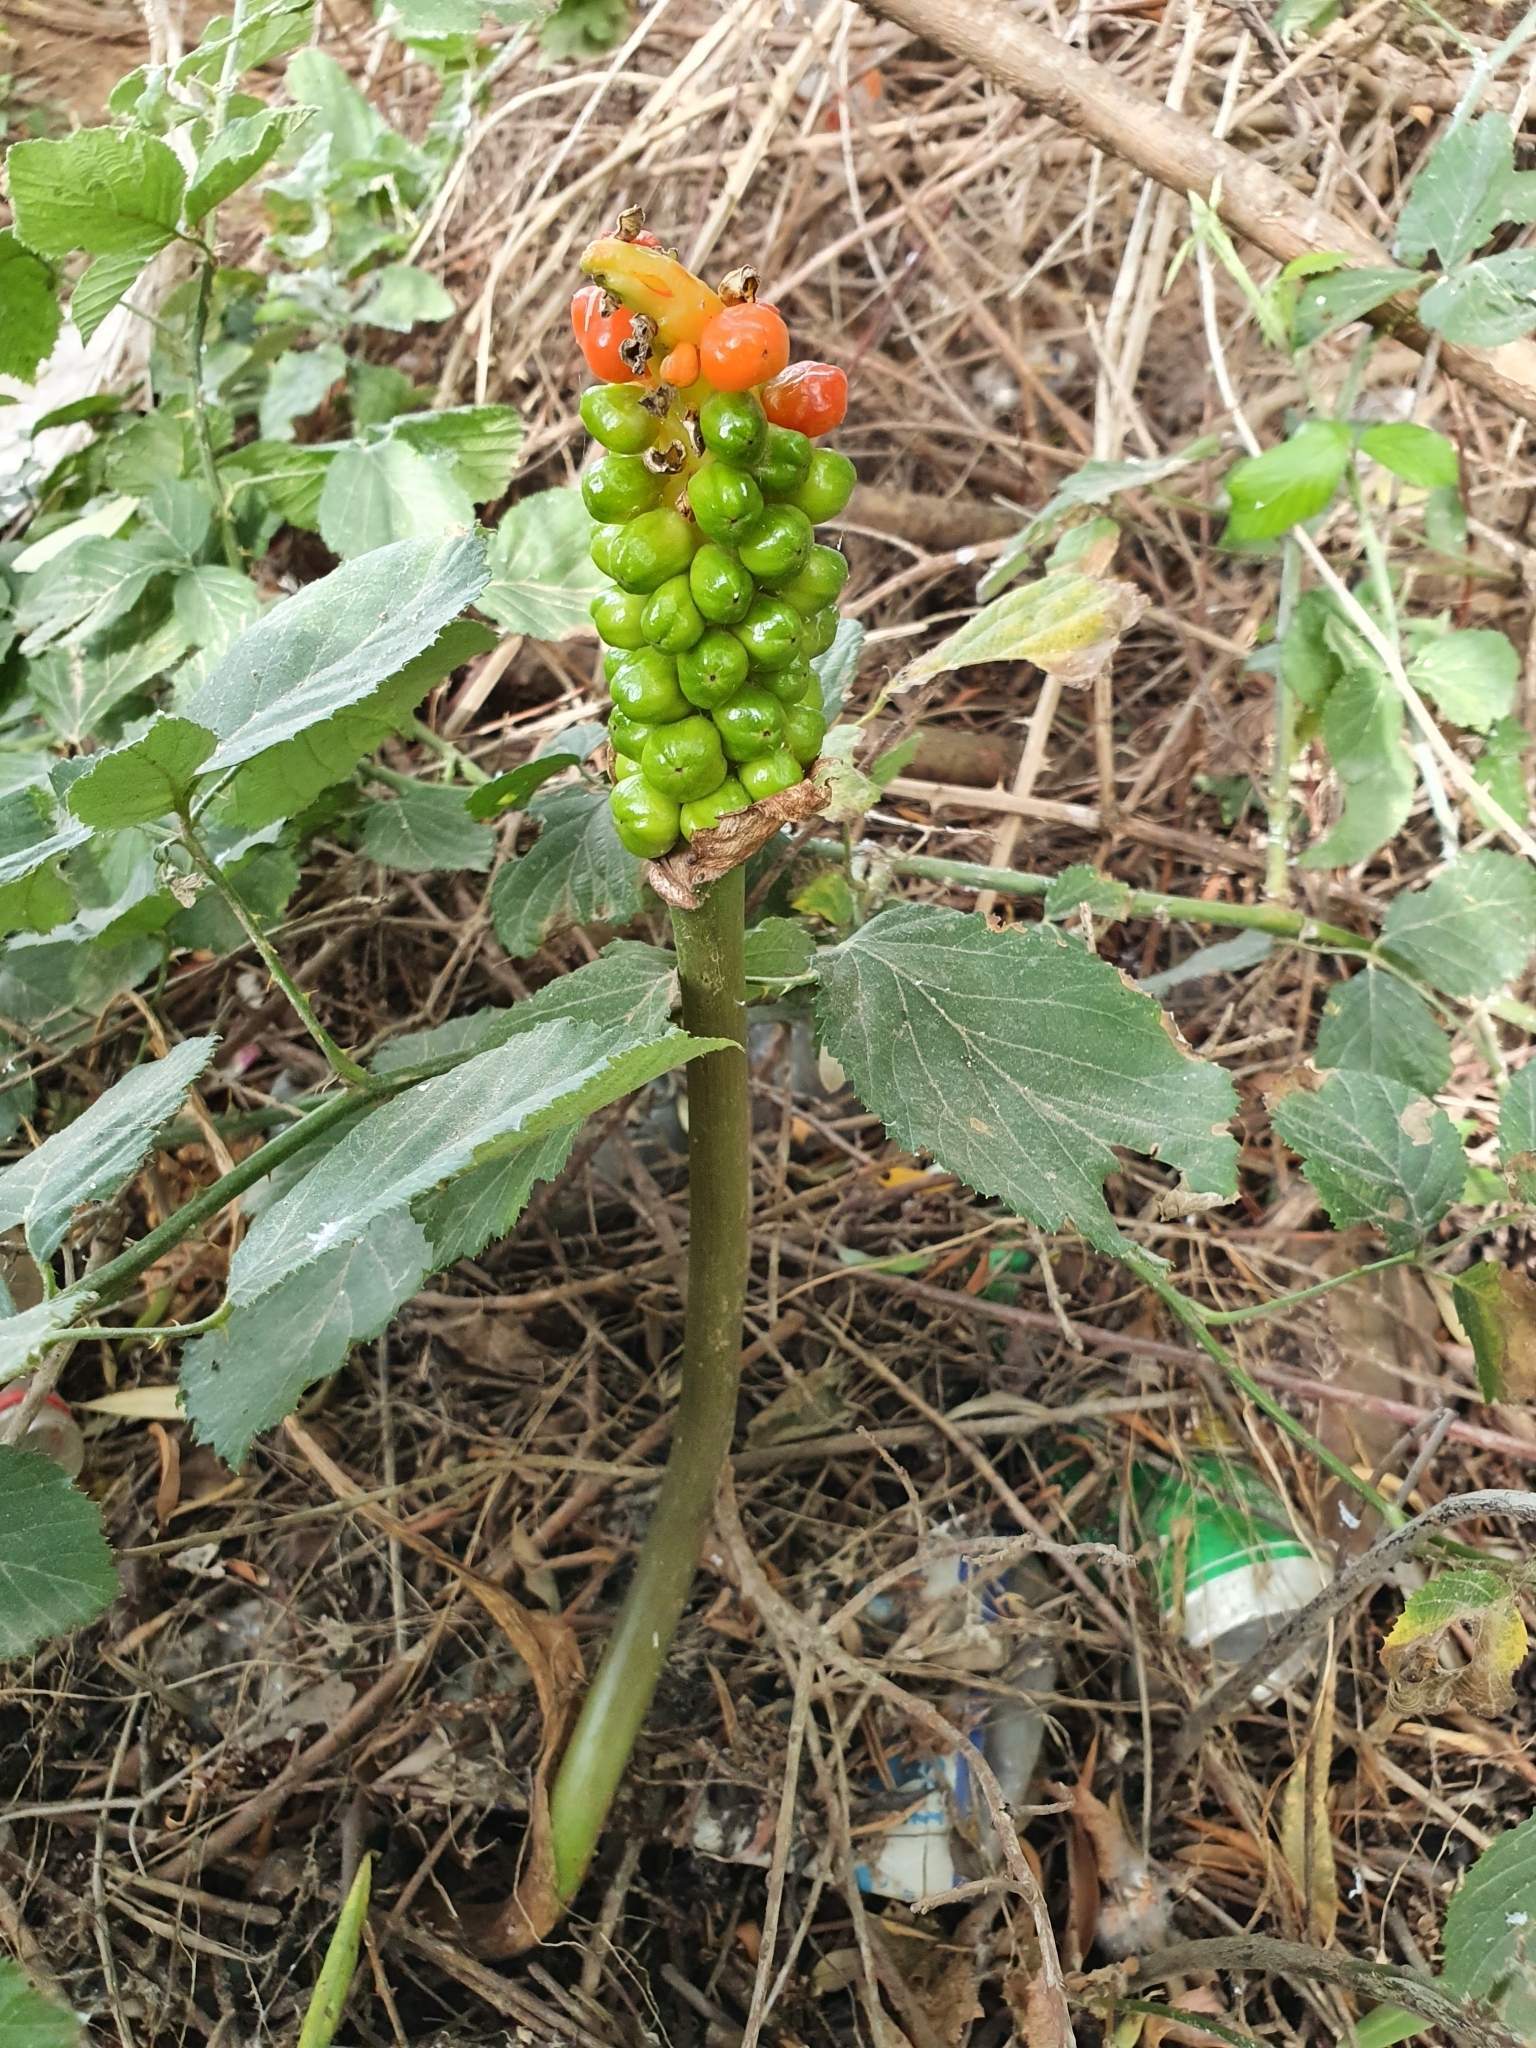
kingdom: Plantae
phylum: Tracheophyta
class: Liliopsida
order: Alismatales
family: Araceae
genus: Arum
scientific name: Arum italicum
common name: Italian lords-and-ladies
